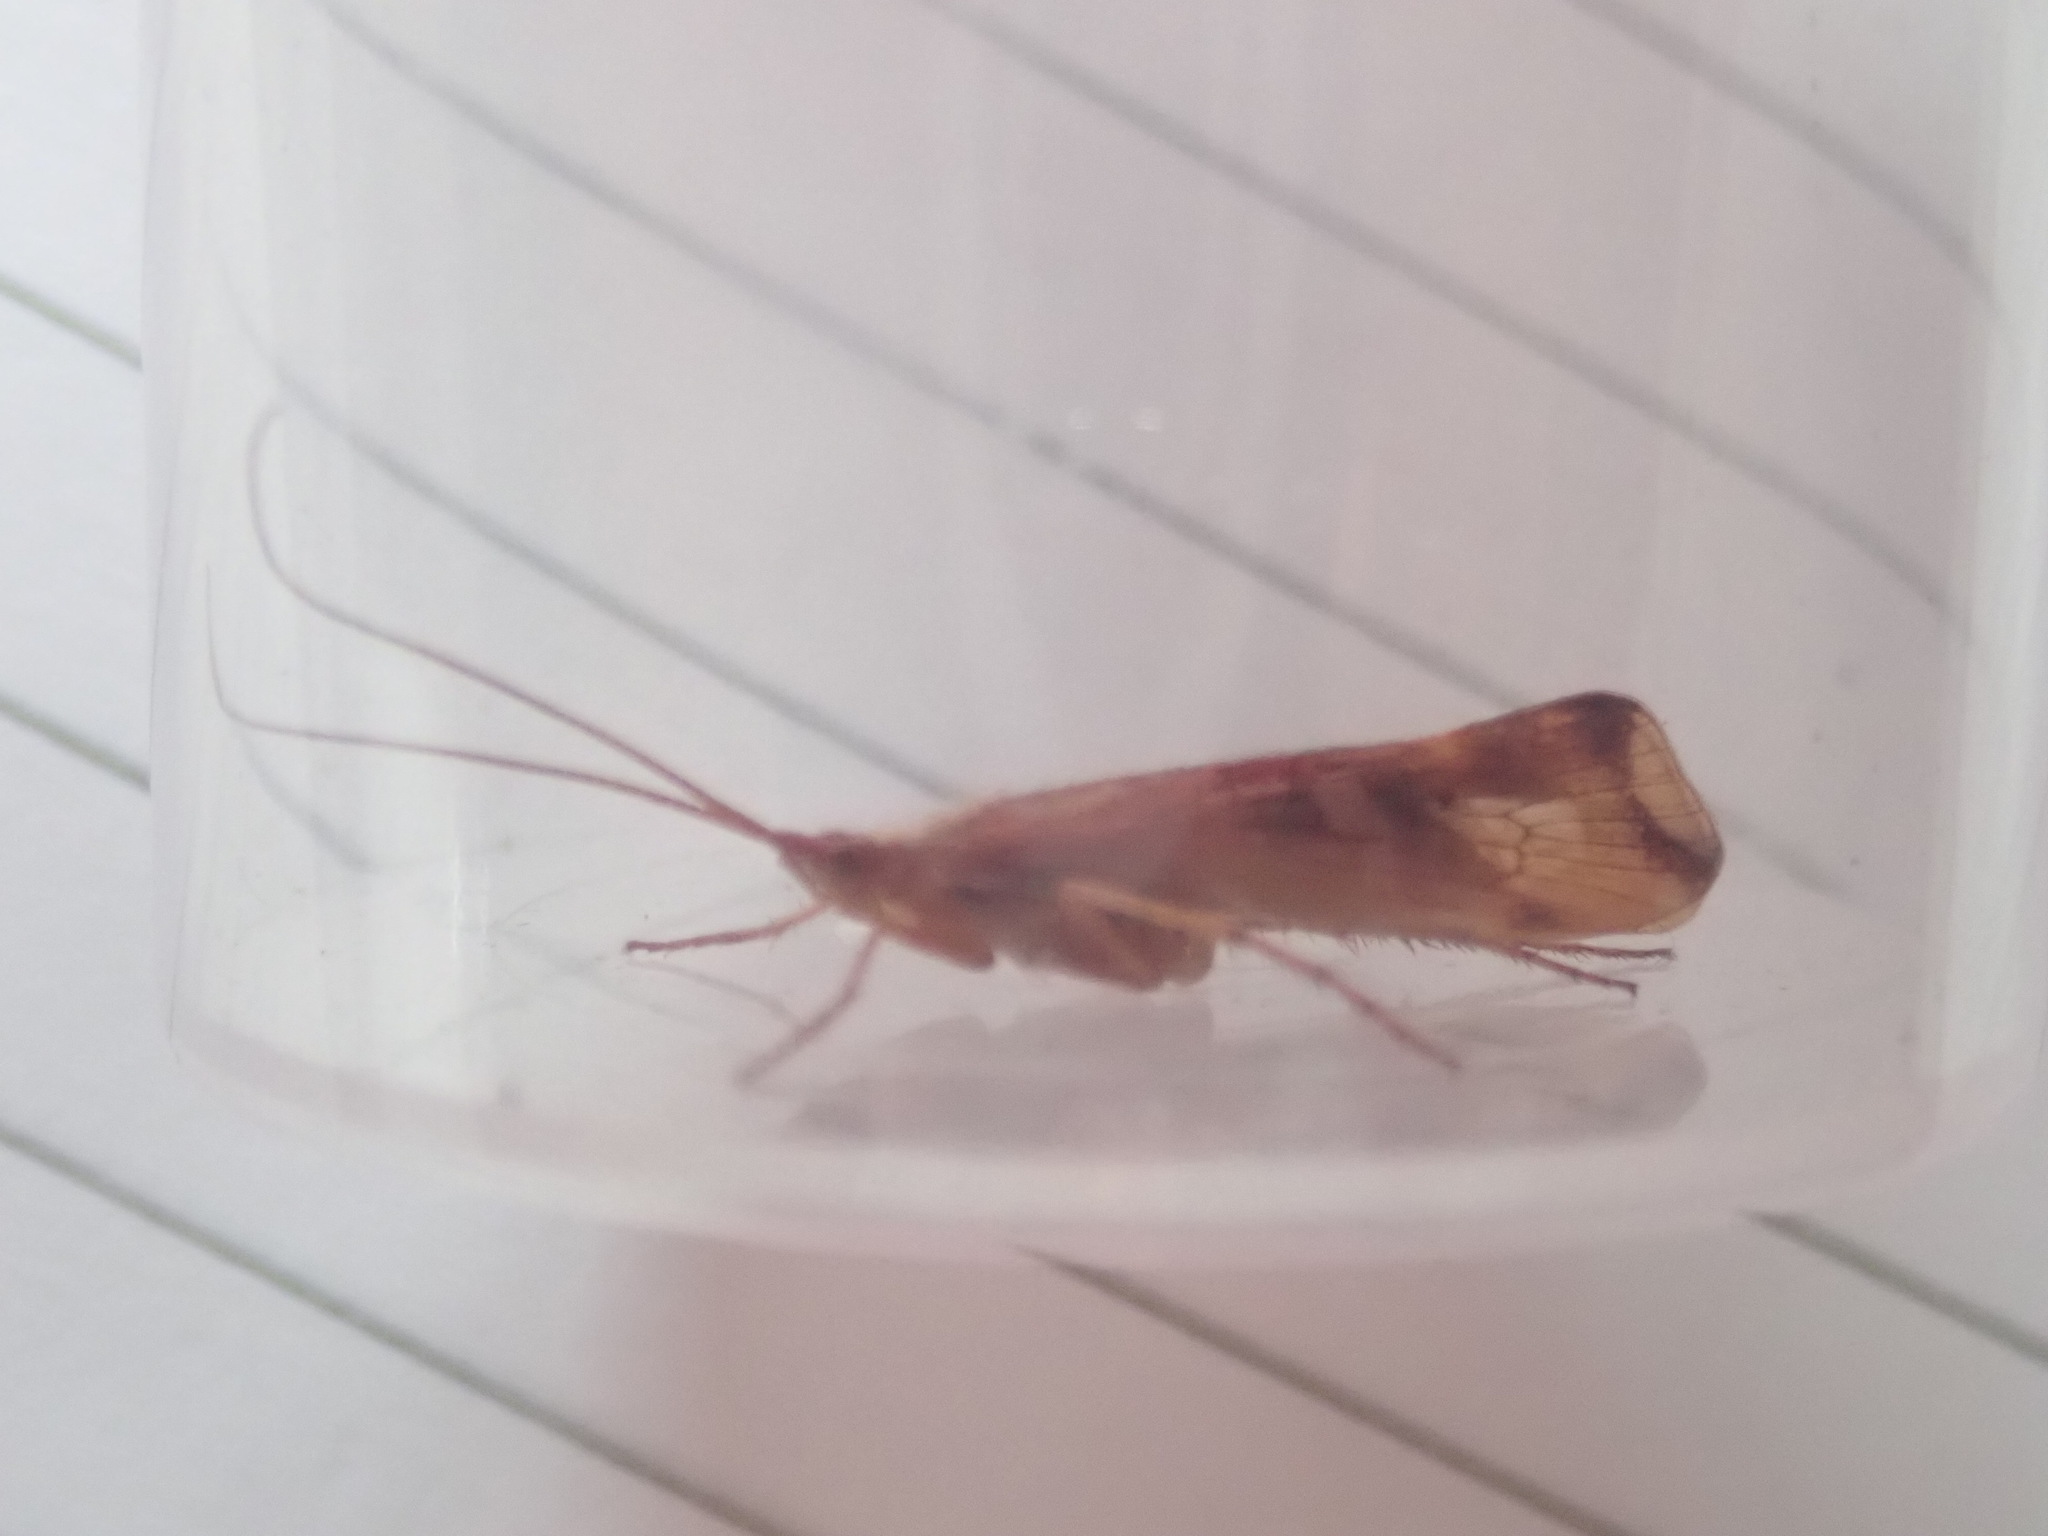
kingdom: Animalia
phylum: Arthropoda
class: Insecta
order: Trichoptera
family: Limnephilidae
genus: Limnephilus
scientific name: Limnephilus lunatus
